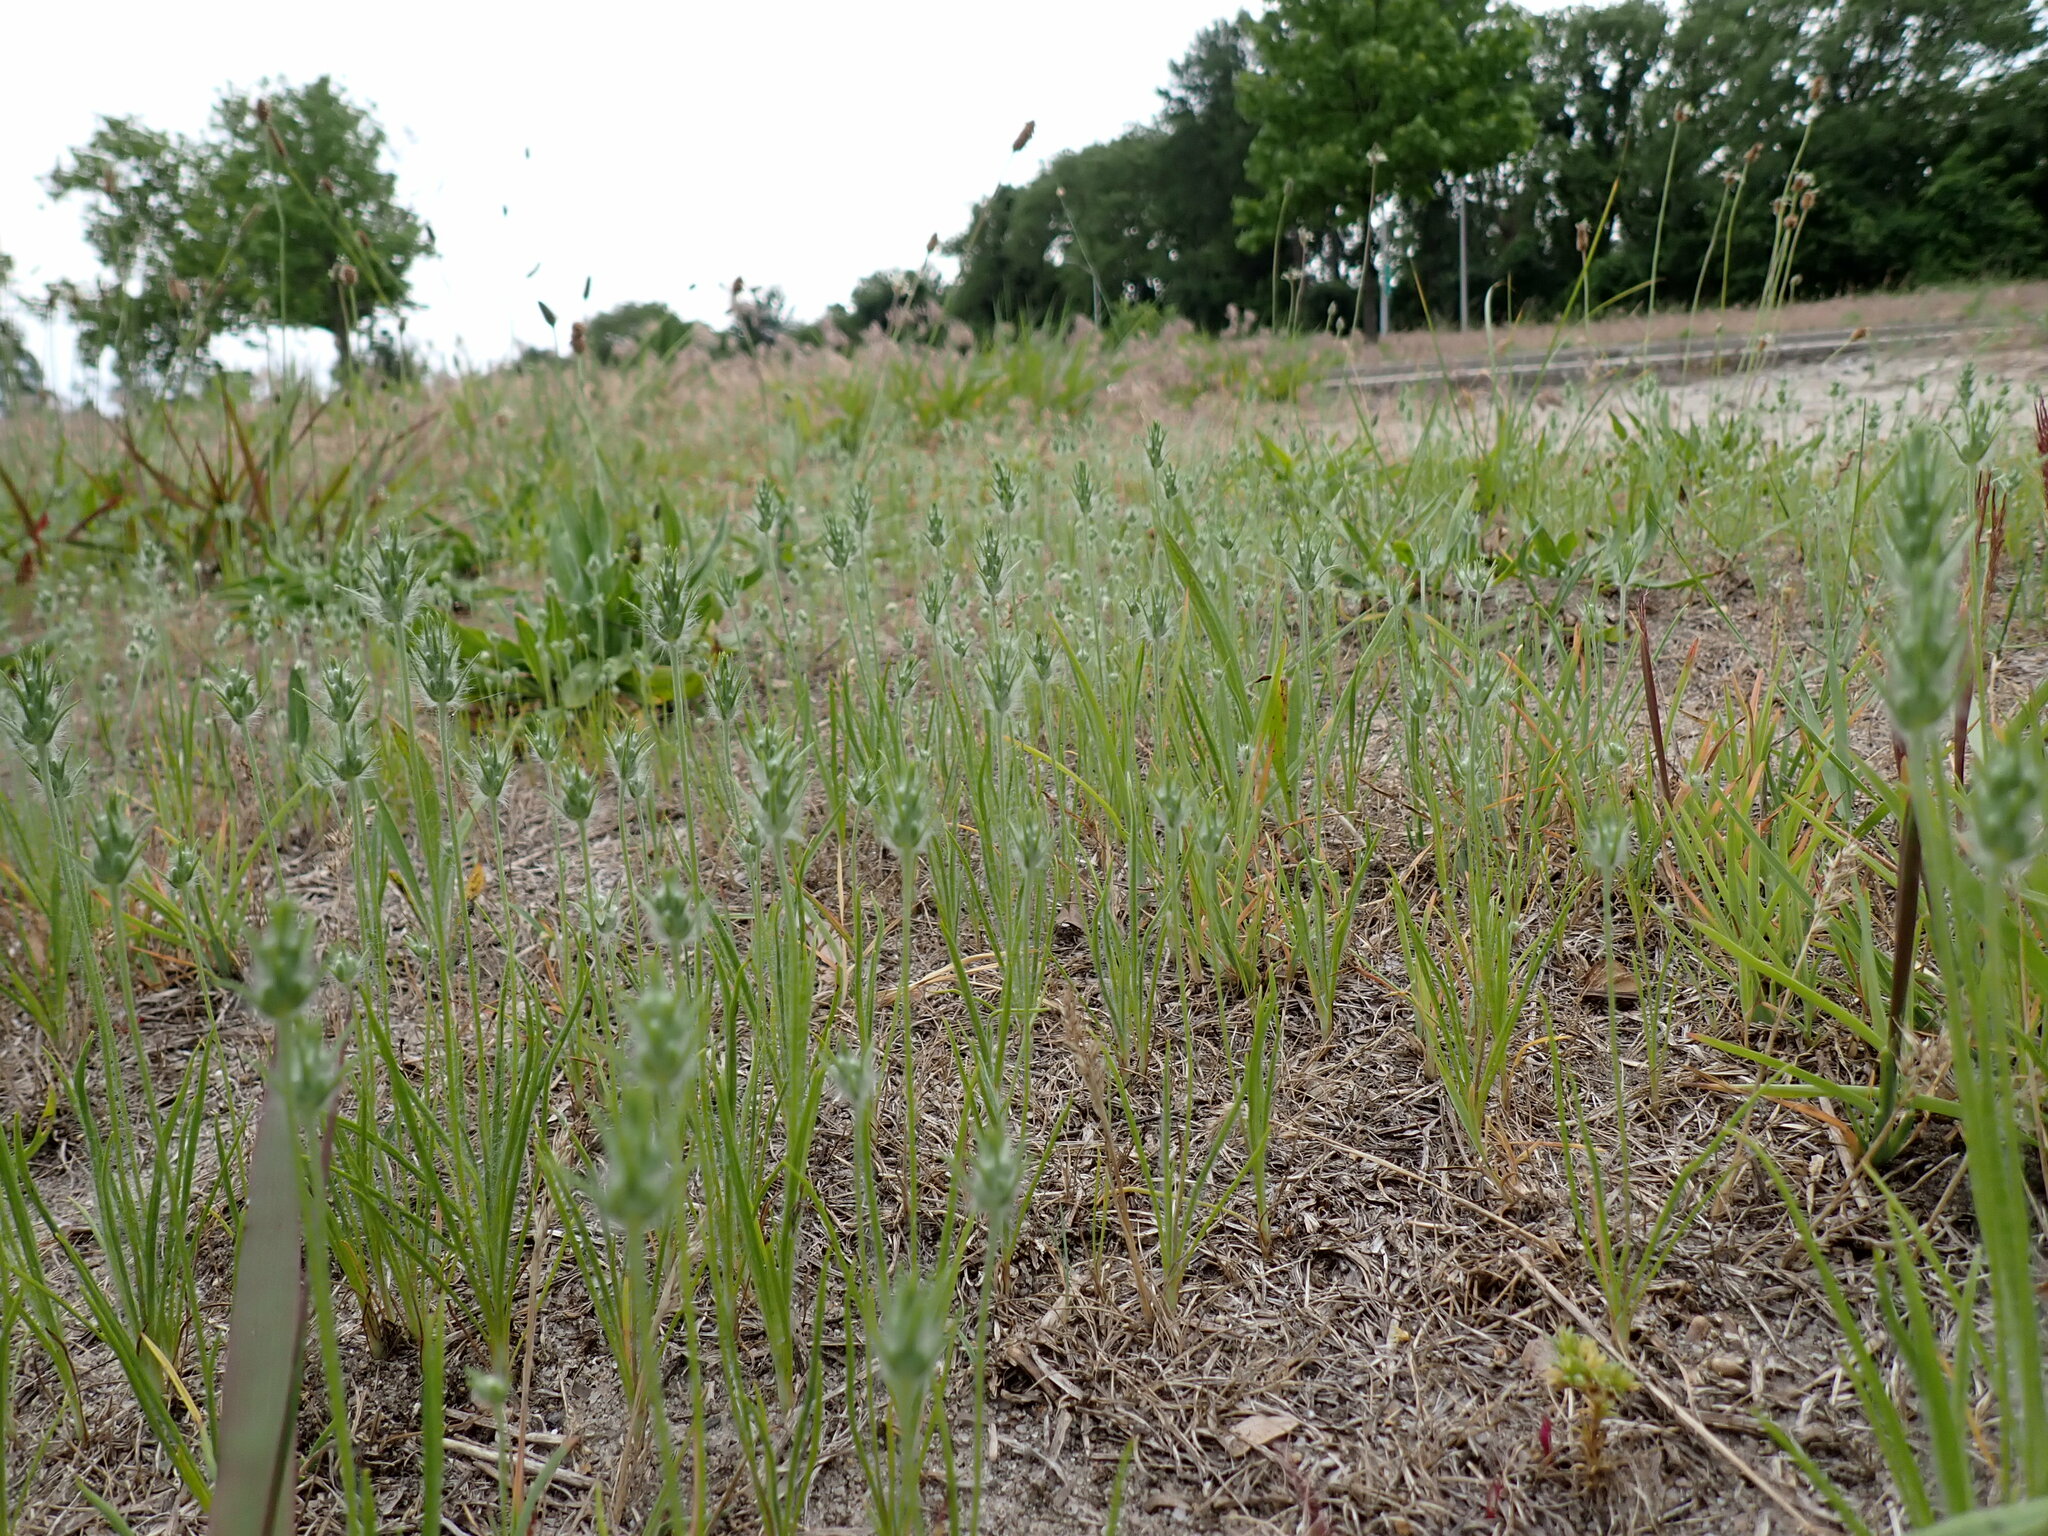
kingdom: Plantae
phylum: Tracheophyta
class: Magnoliopsida
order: Lamiales
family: Plantaginaceae
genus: Plantago
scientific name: Plantago aristata
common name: Bracted plantain
